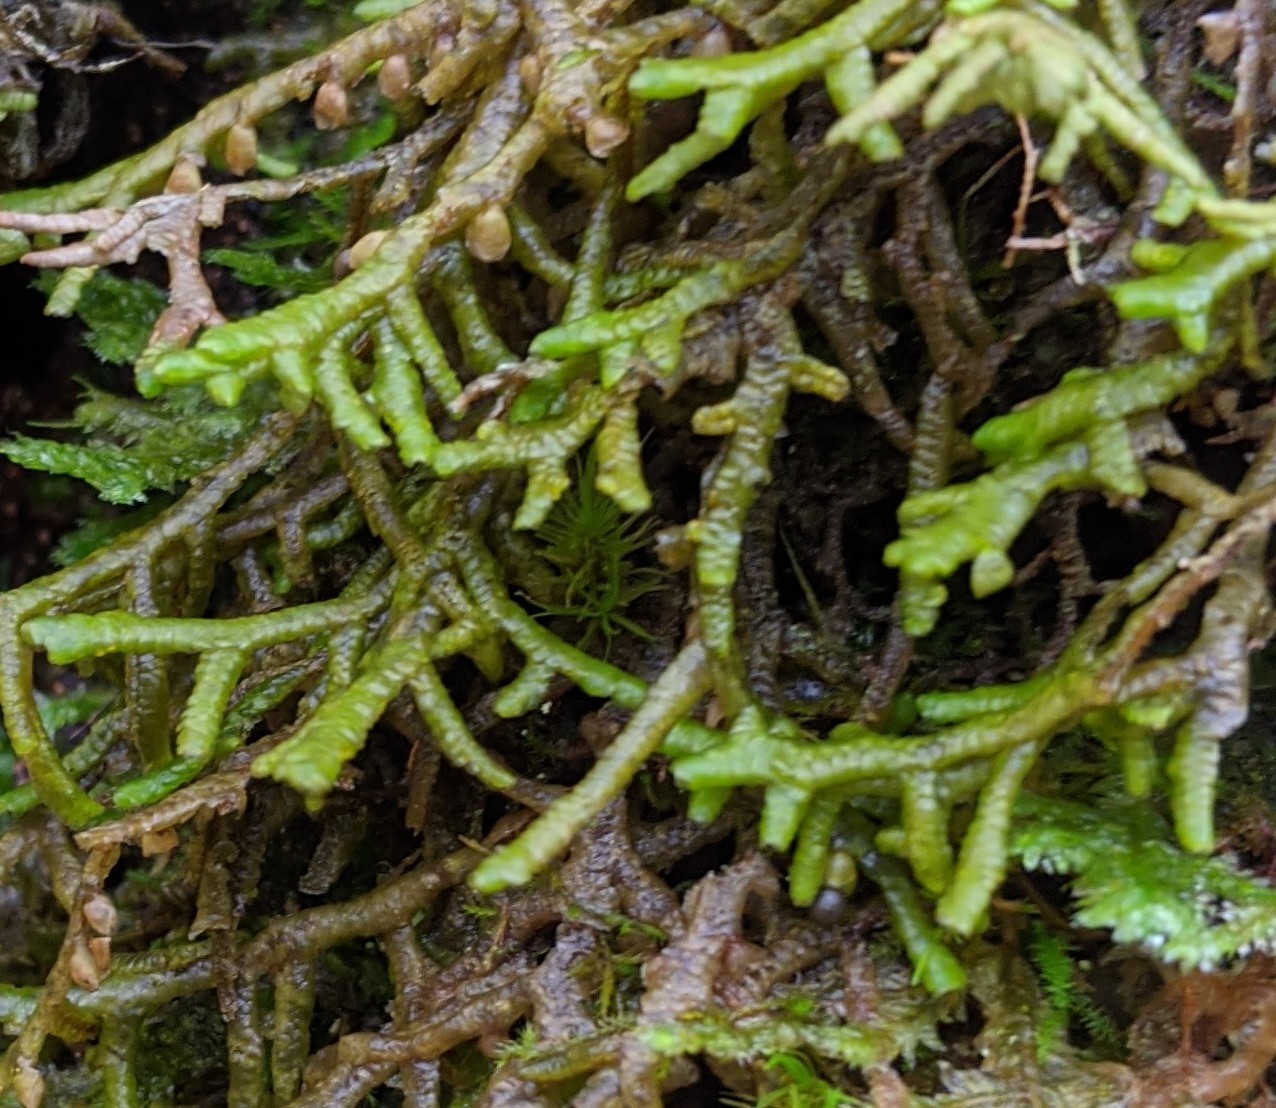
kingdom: Plantae
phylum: Marchantiophyta
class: Jungermanniopsida
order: Porellales
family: Porellaceae
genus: Porella
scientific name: Porella platyphylla
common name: Wall scalewort
